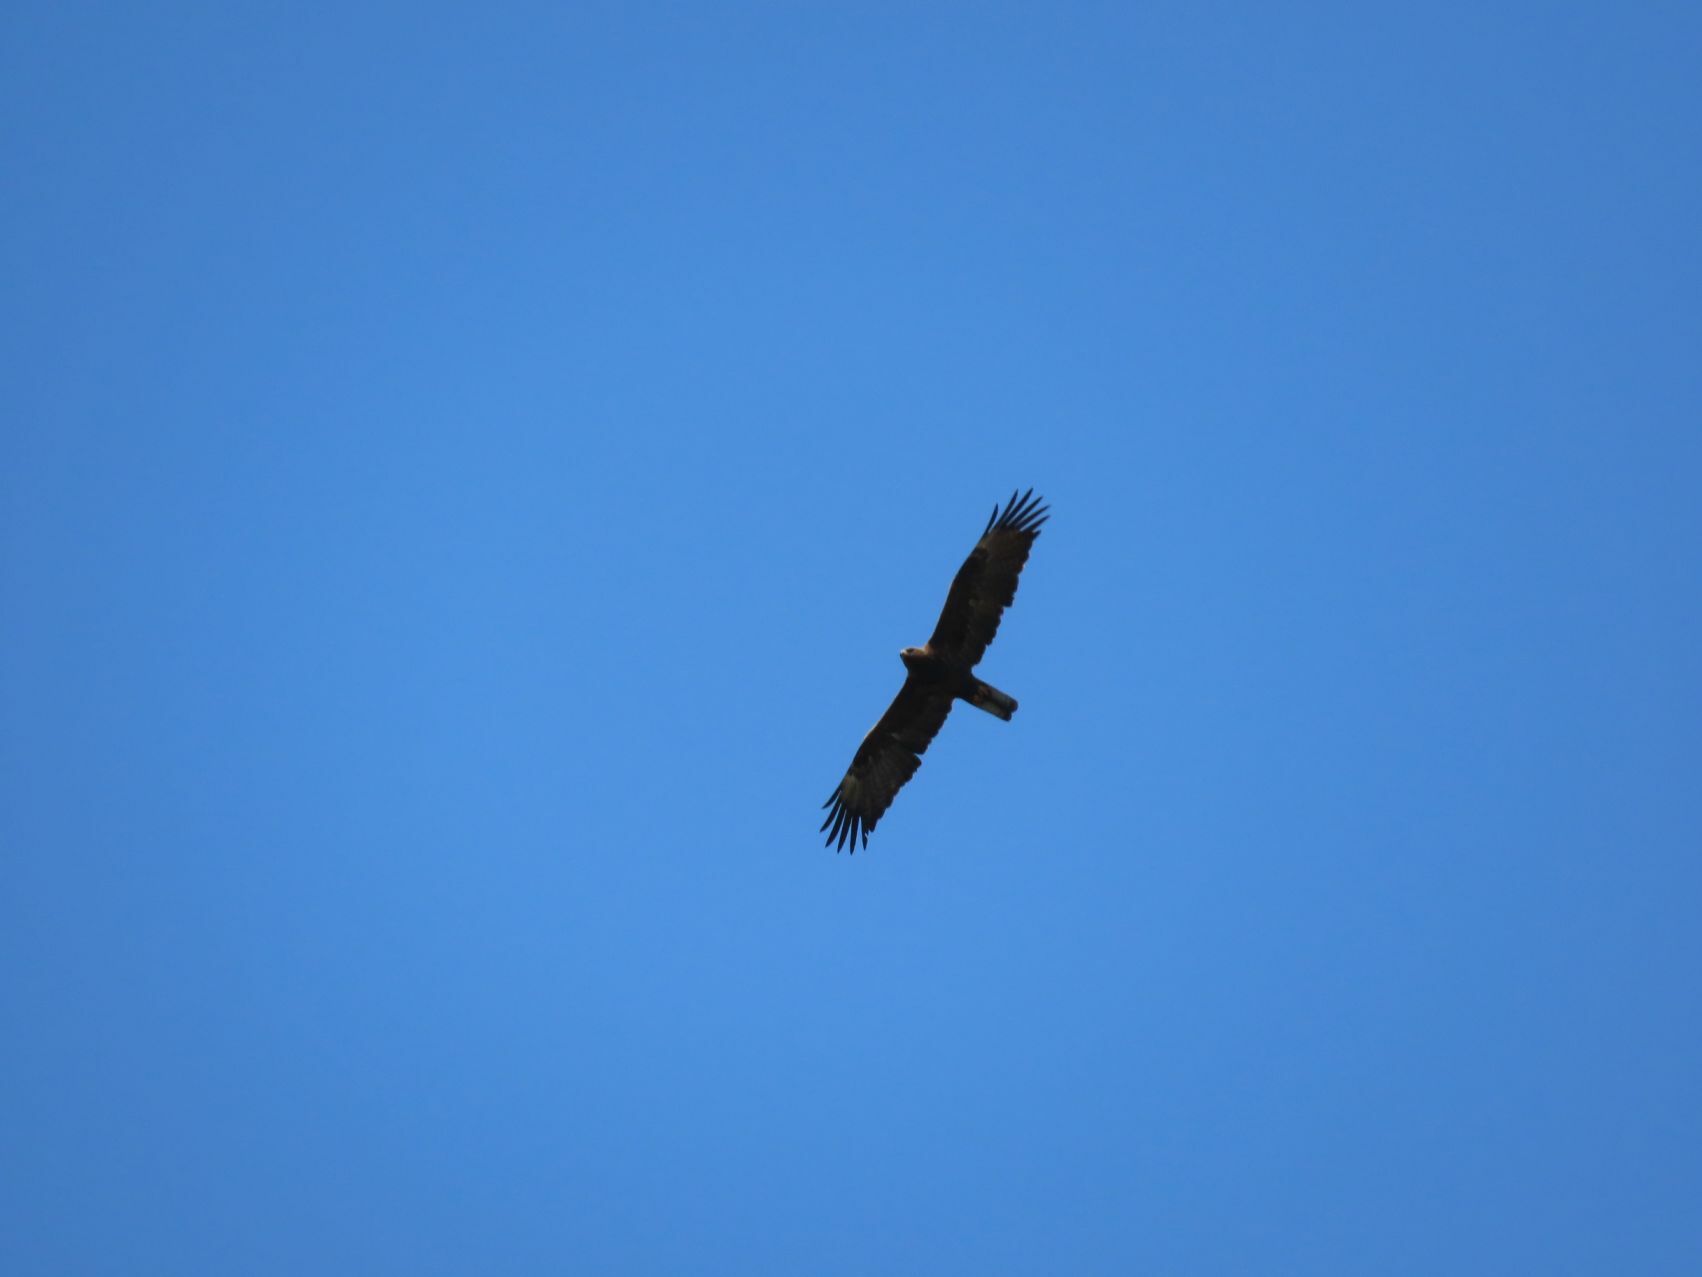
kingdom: Animalia
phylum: Chordata
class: Aves
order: Accipitriformes
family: Accipitridae
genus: Hieraaetus
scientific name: Hieraaetus wahlbergi
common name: Wahlberg's eagle
